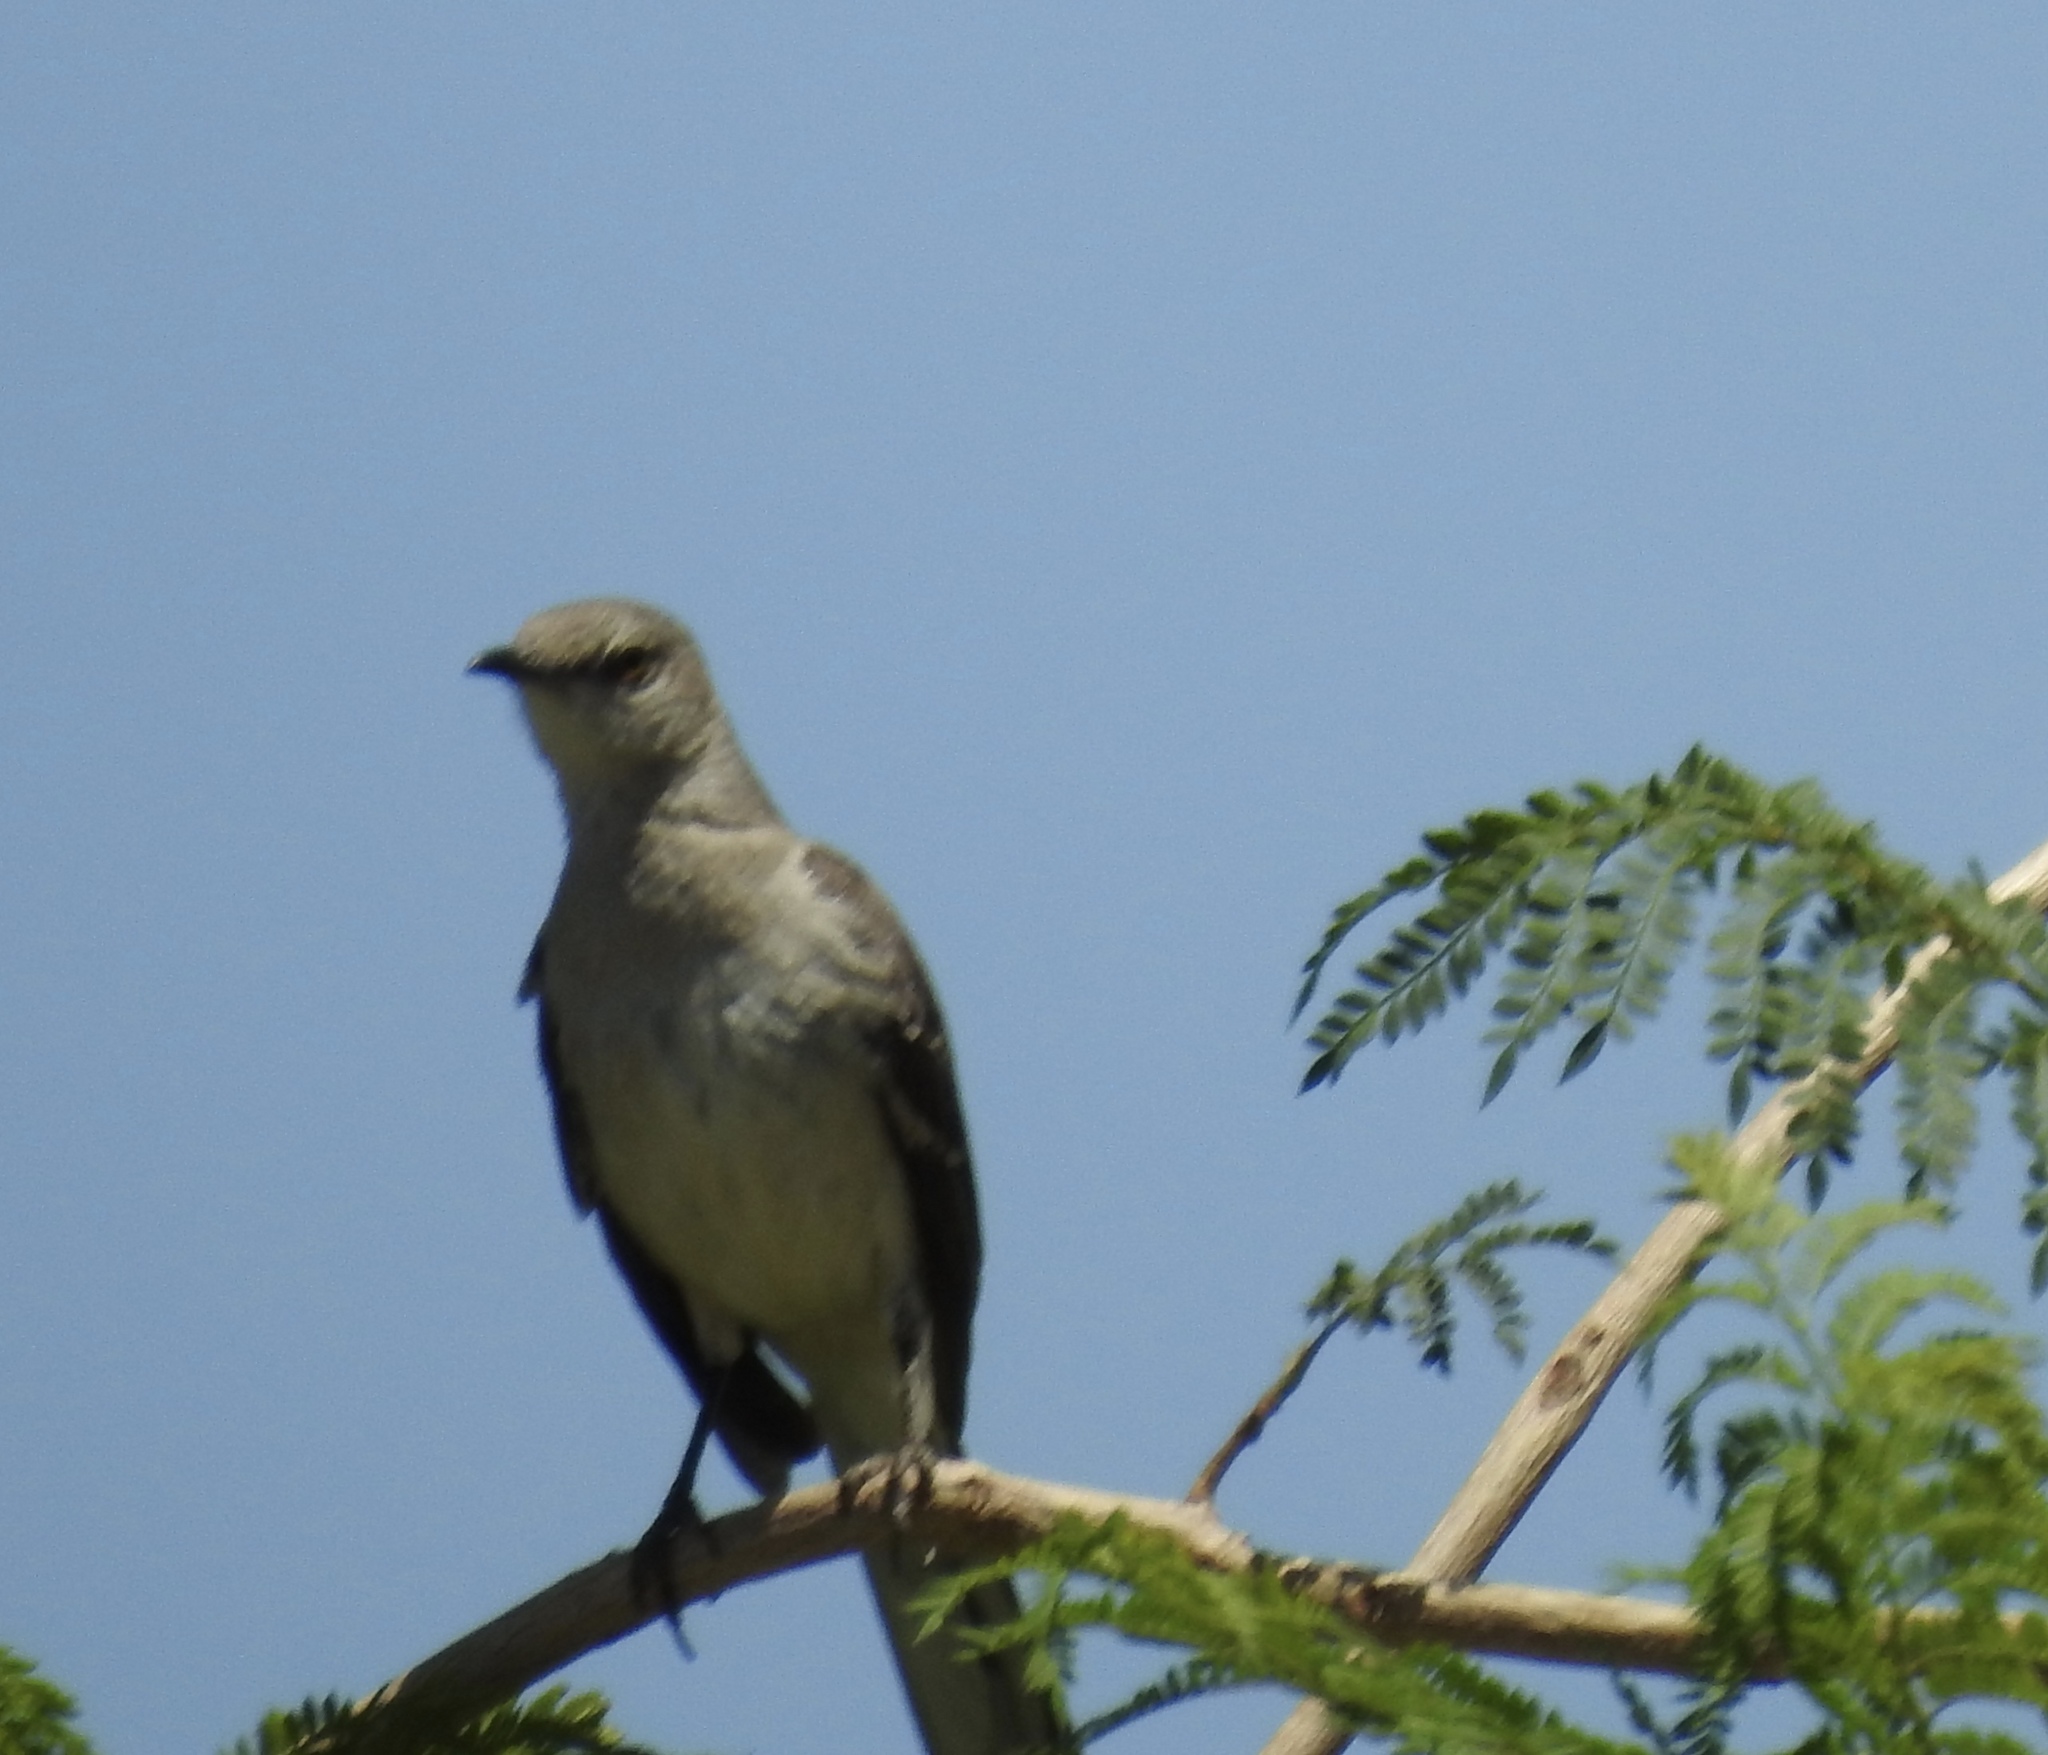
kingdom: Animalia
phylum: Chordata
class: Aves
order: Passeriformes
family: Mimidae
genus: Mimus
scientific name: Mimus polyglottos
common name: Northern mockingbird
